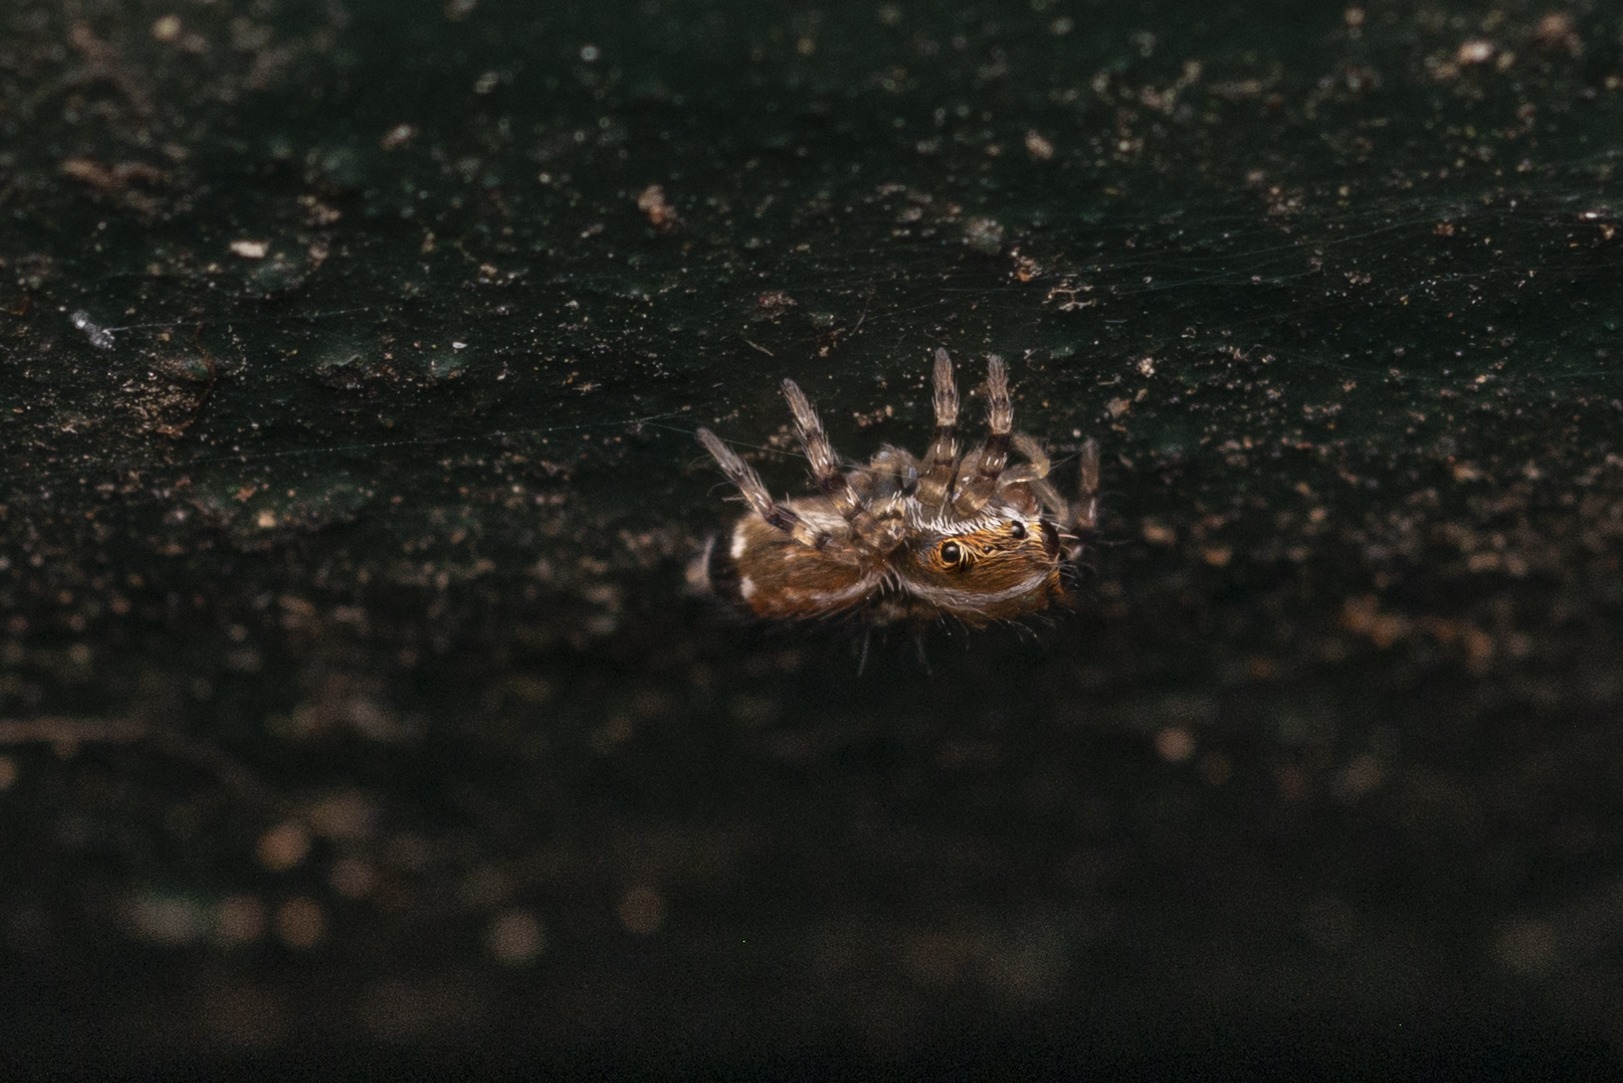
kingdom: Animalia
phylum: Arthropoda
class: Arachnida
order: Araneae
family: Salticidae
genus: Thyene
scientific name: Thyene orientalis
